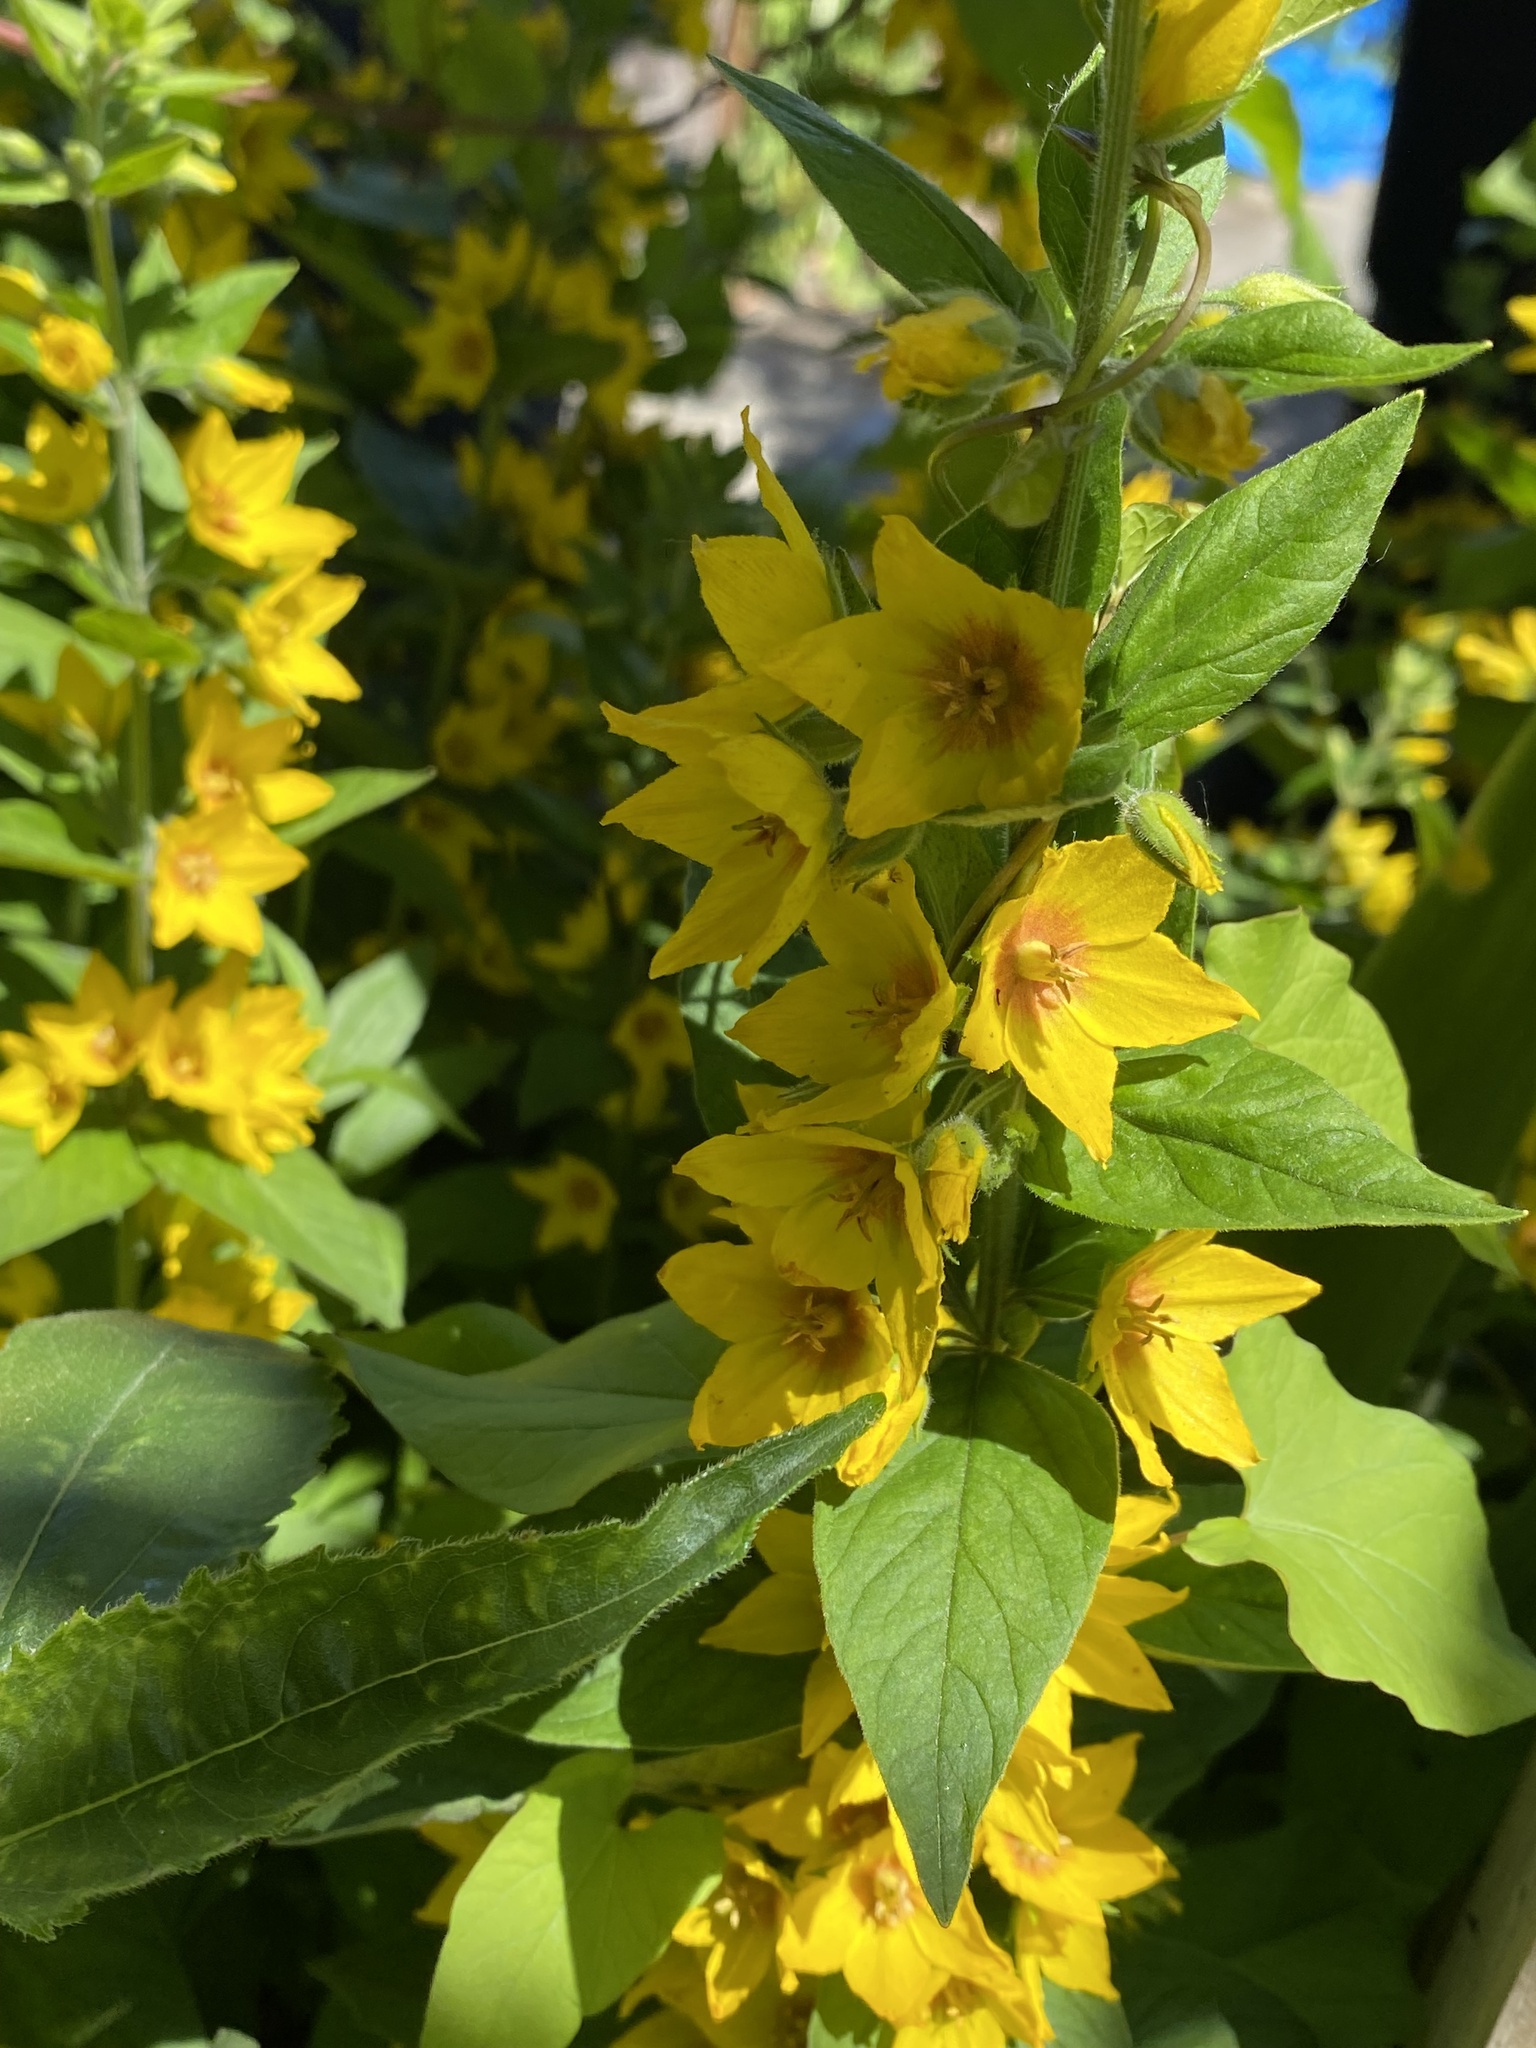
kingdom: Plantae
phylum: Tracheophyta
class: Magnoliopsida
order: Ericales
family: Primulaceae
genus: Lysimachia
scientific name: Lysimachia punctata
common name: Dotted loosestrife
